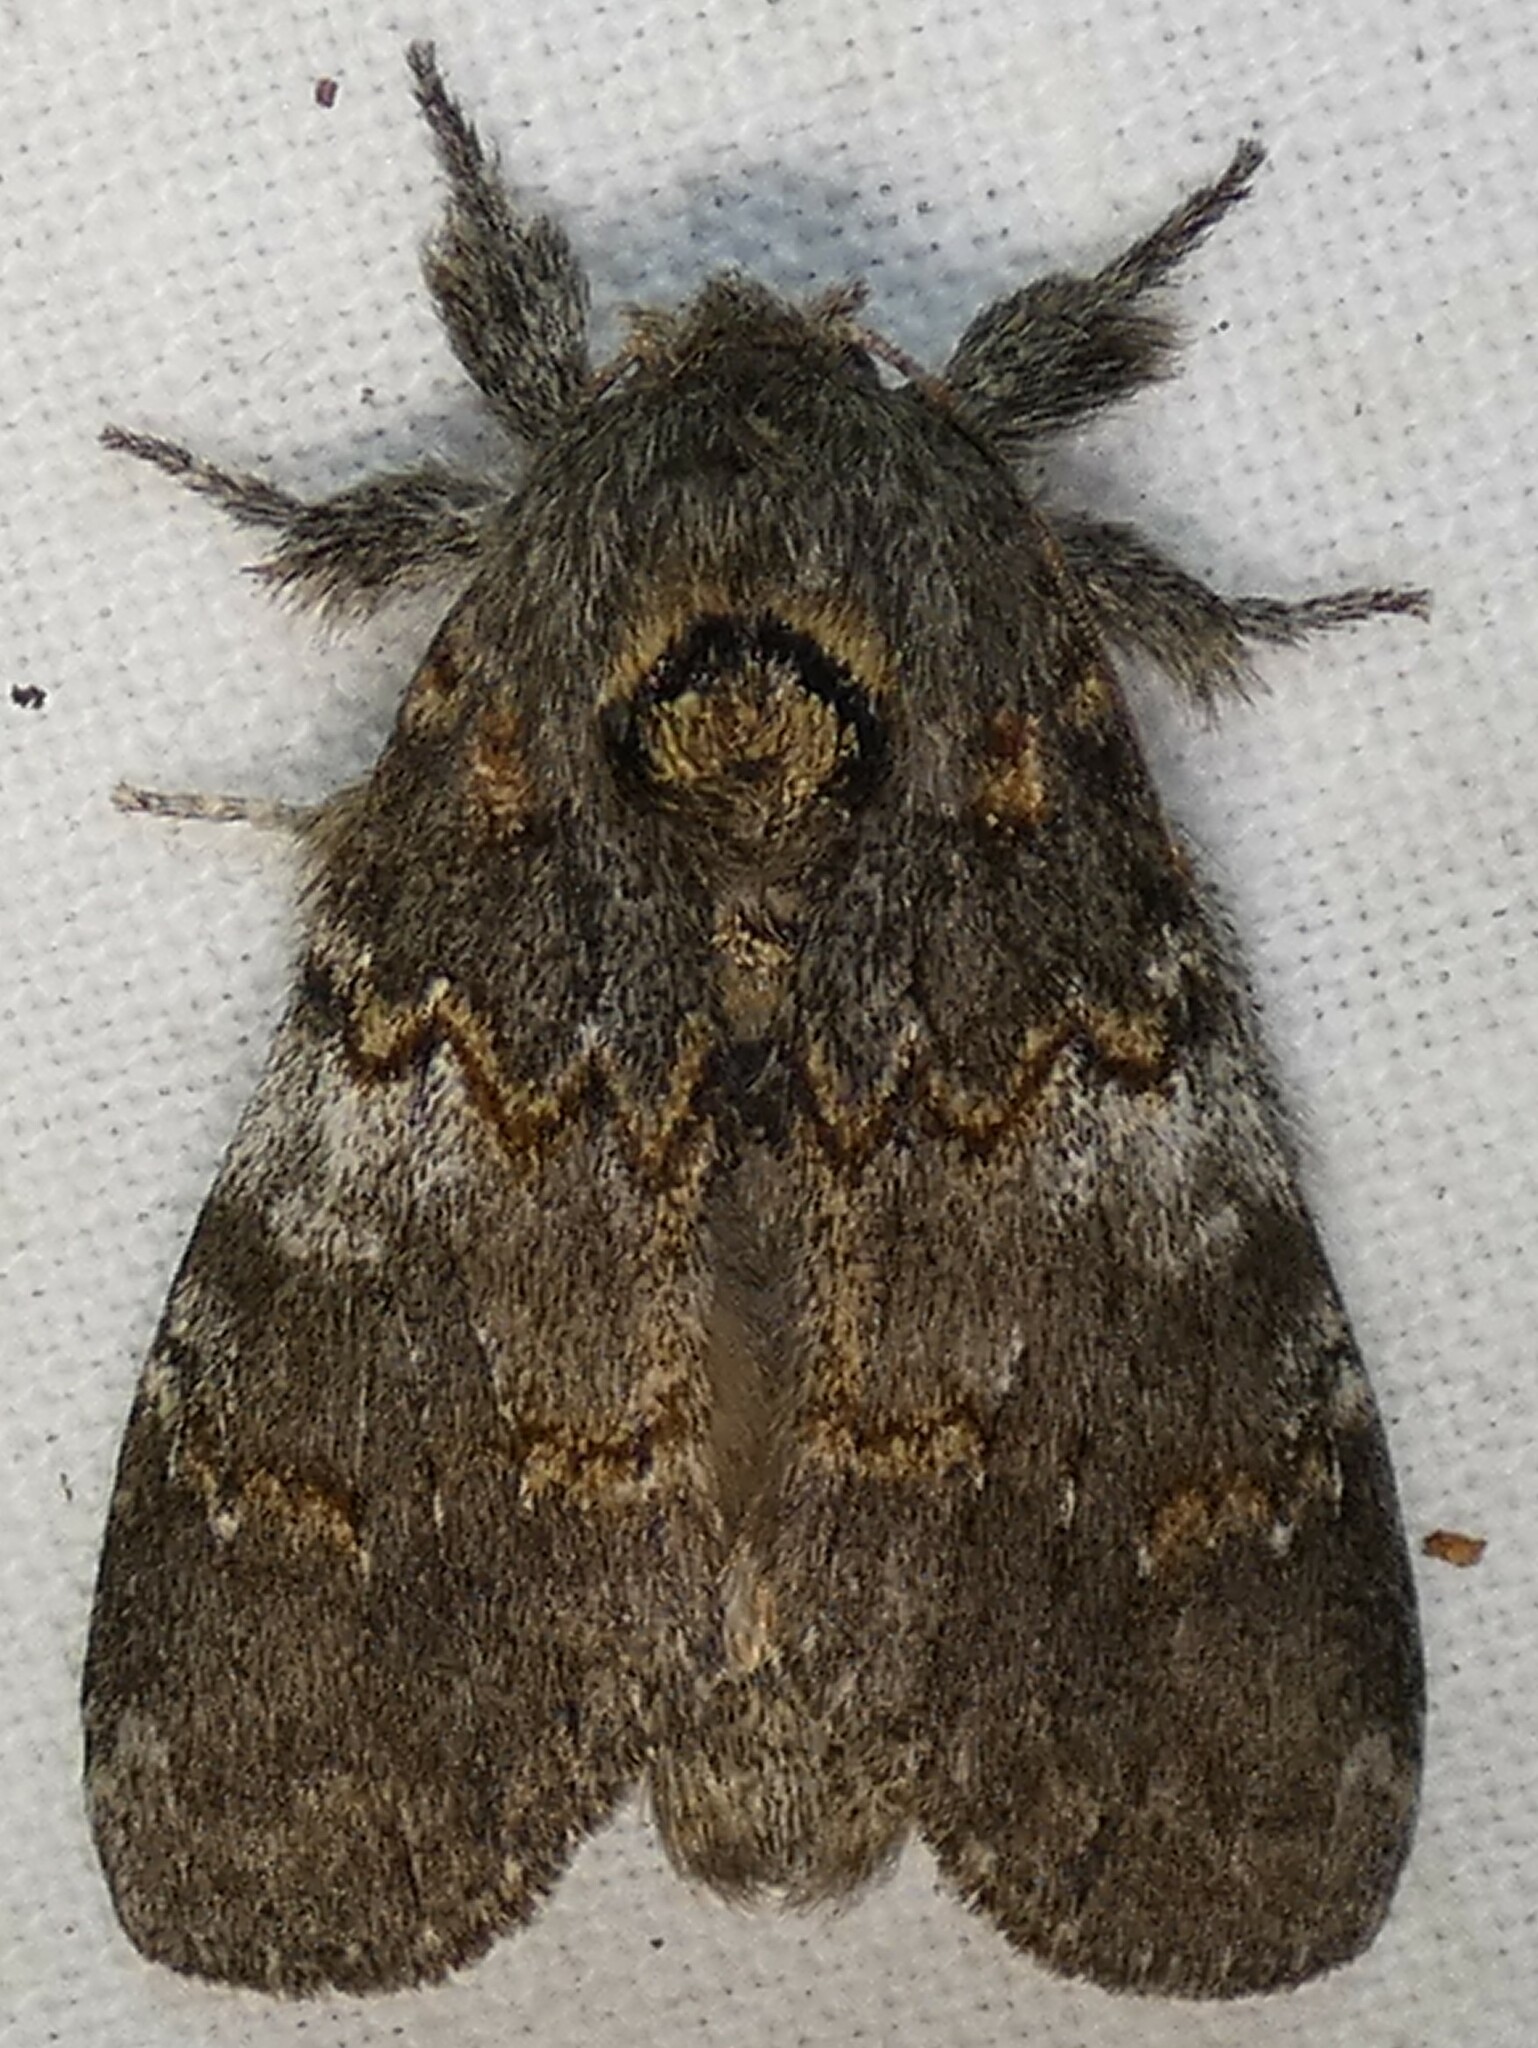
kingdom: Animalia
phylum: Arthropoda
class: Insecta
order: Lepidoptera
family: Notodontidae
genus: Peridea
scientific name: Peridea angulosa
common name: Angulose prominent
